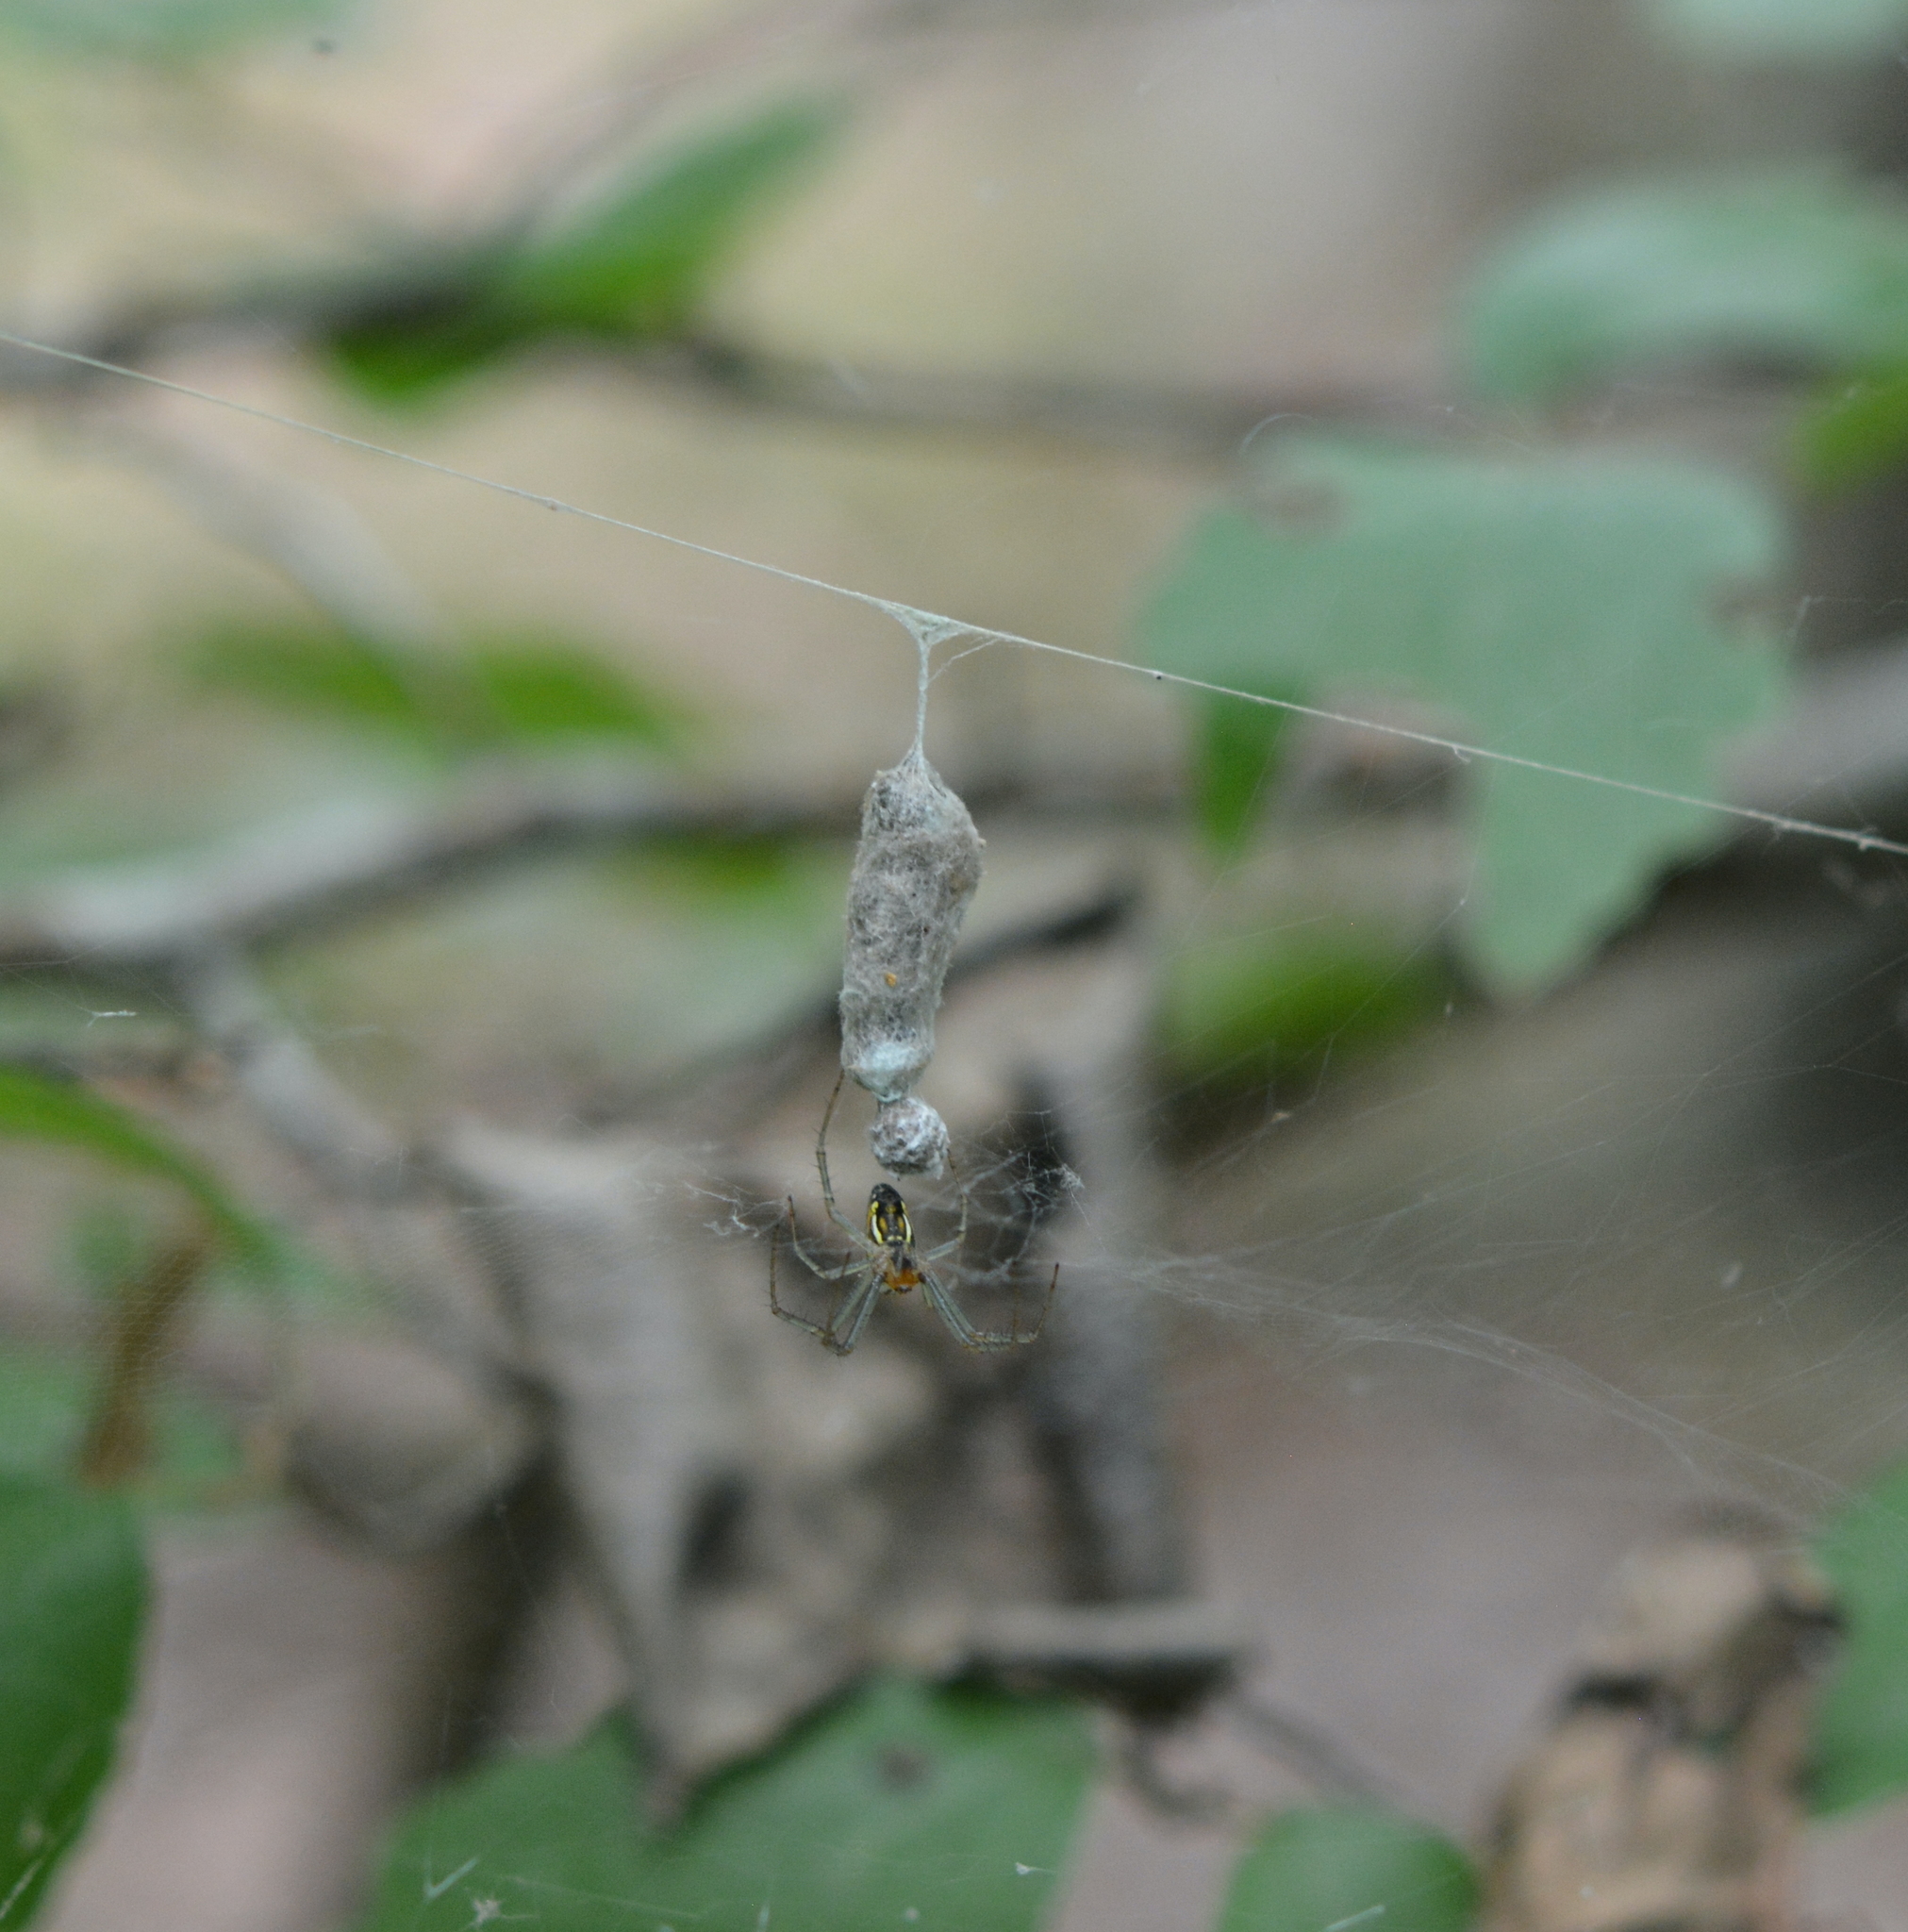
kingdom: Animalia
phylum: Arthropoda
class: Arachnida
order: Araneae
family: Araneidae
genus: Mecynogea
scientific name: Mecynogea lemniscata
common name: Orb weavers
